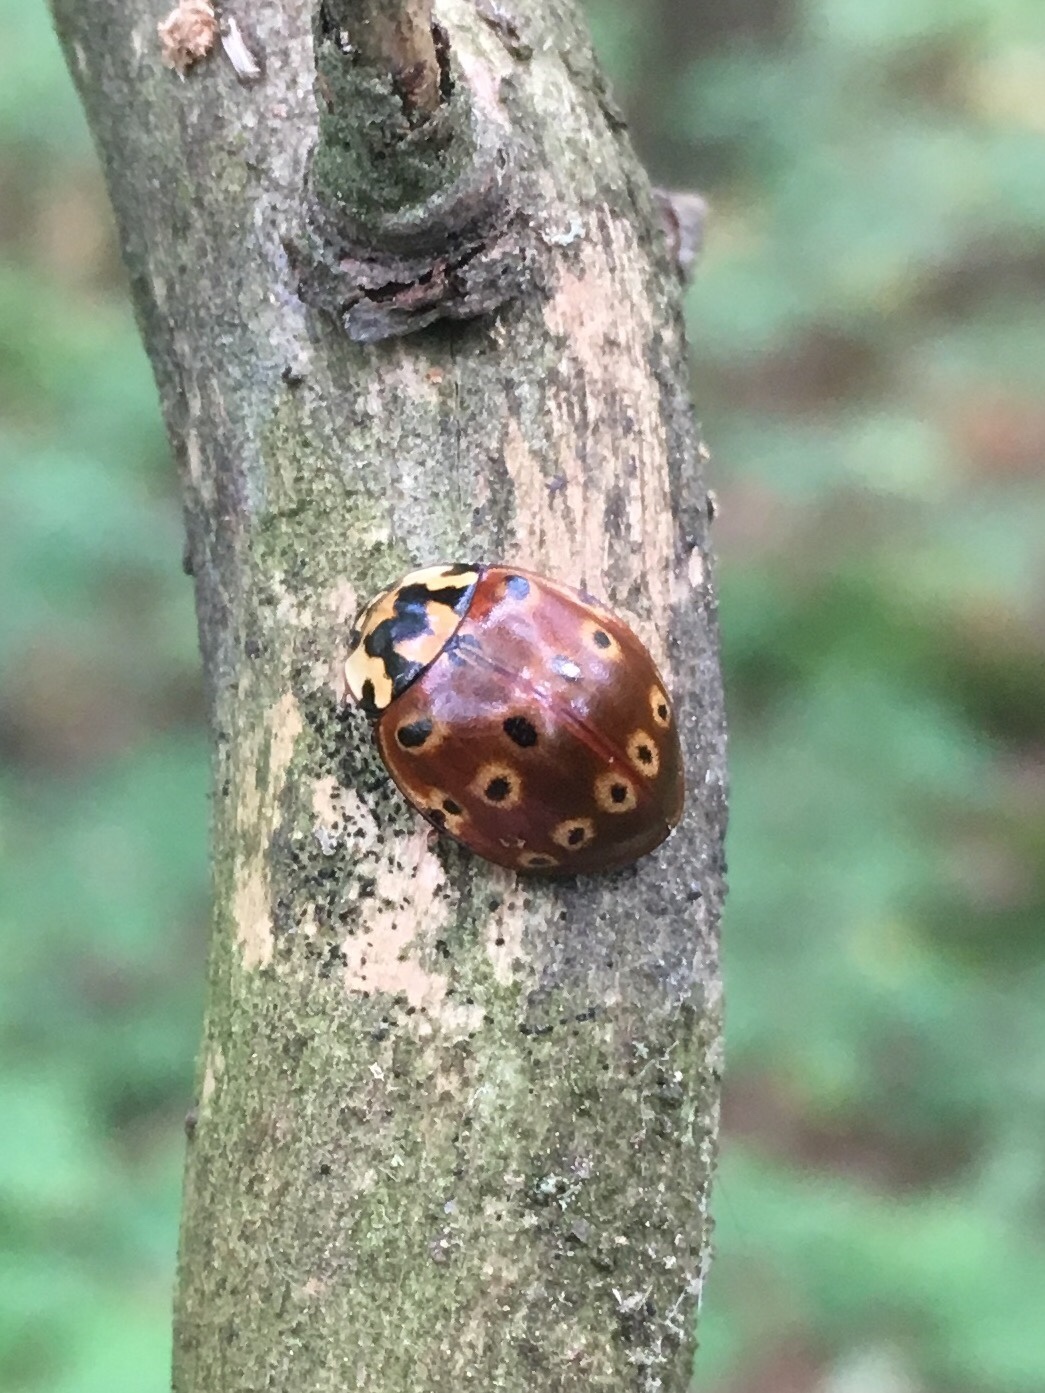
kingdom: Animalia
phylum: Arthropoda
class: Insecta
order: Coleoptera
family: Coccinellidae
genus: Anatis
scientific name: Anatis mali
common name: Eye-spotted lady beetle
